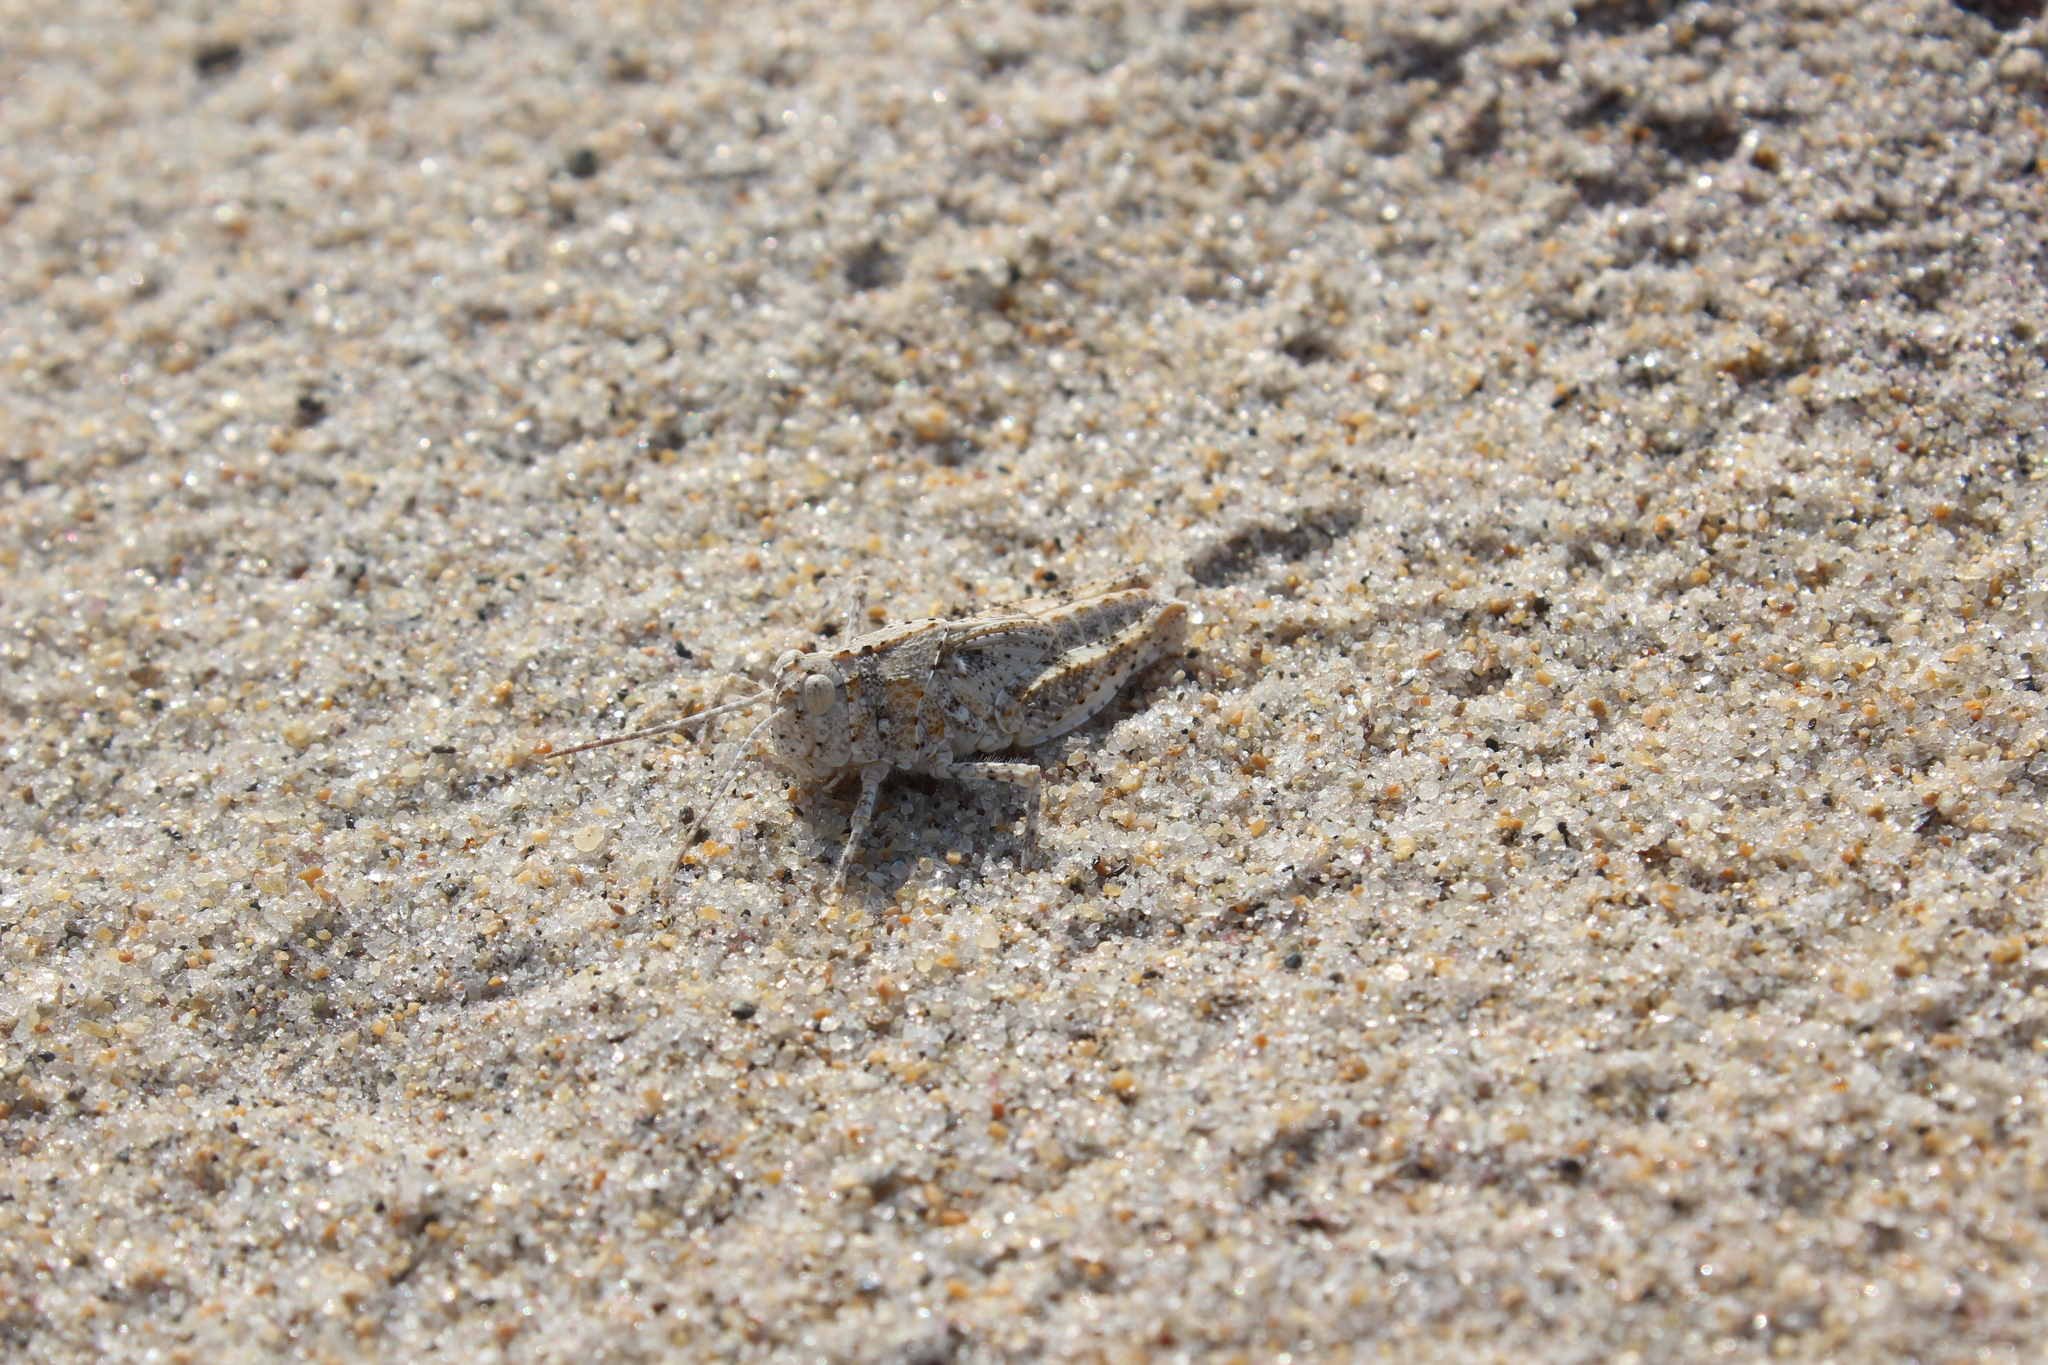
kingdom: Animalia
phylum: Arthropoda
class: Insecta
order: Orthoptera
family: Acrididae
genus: Trimerotropis
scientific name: Trimerotropis maritima
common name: Seaside locust
